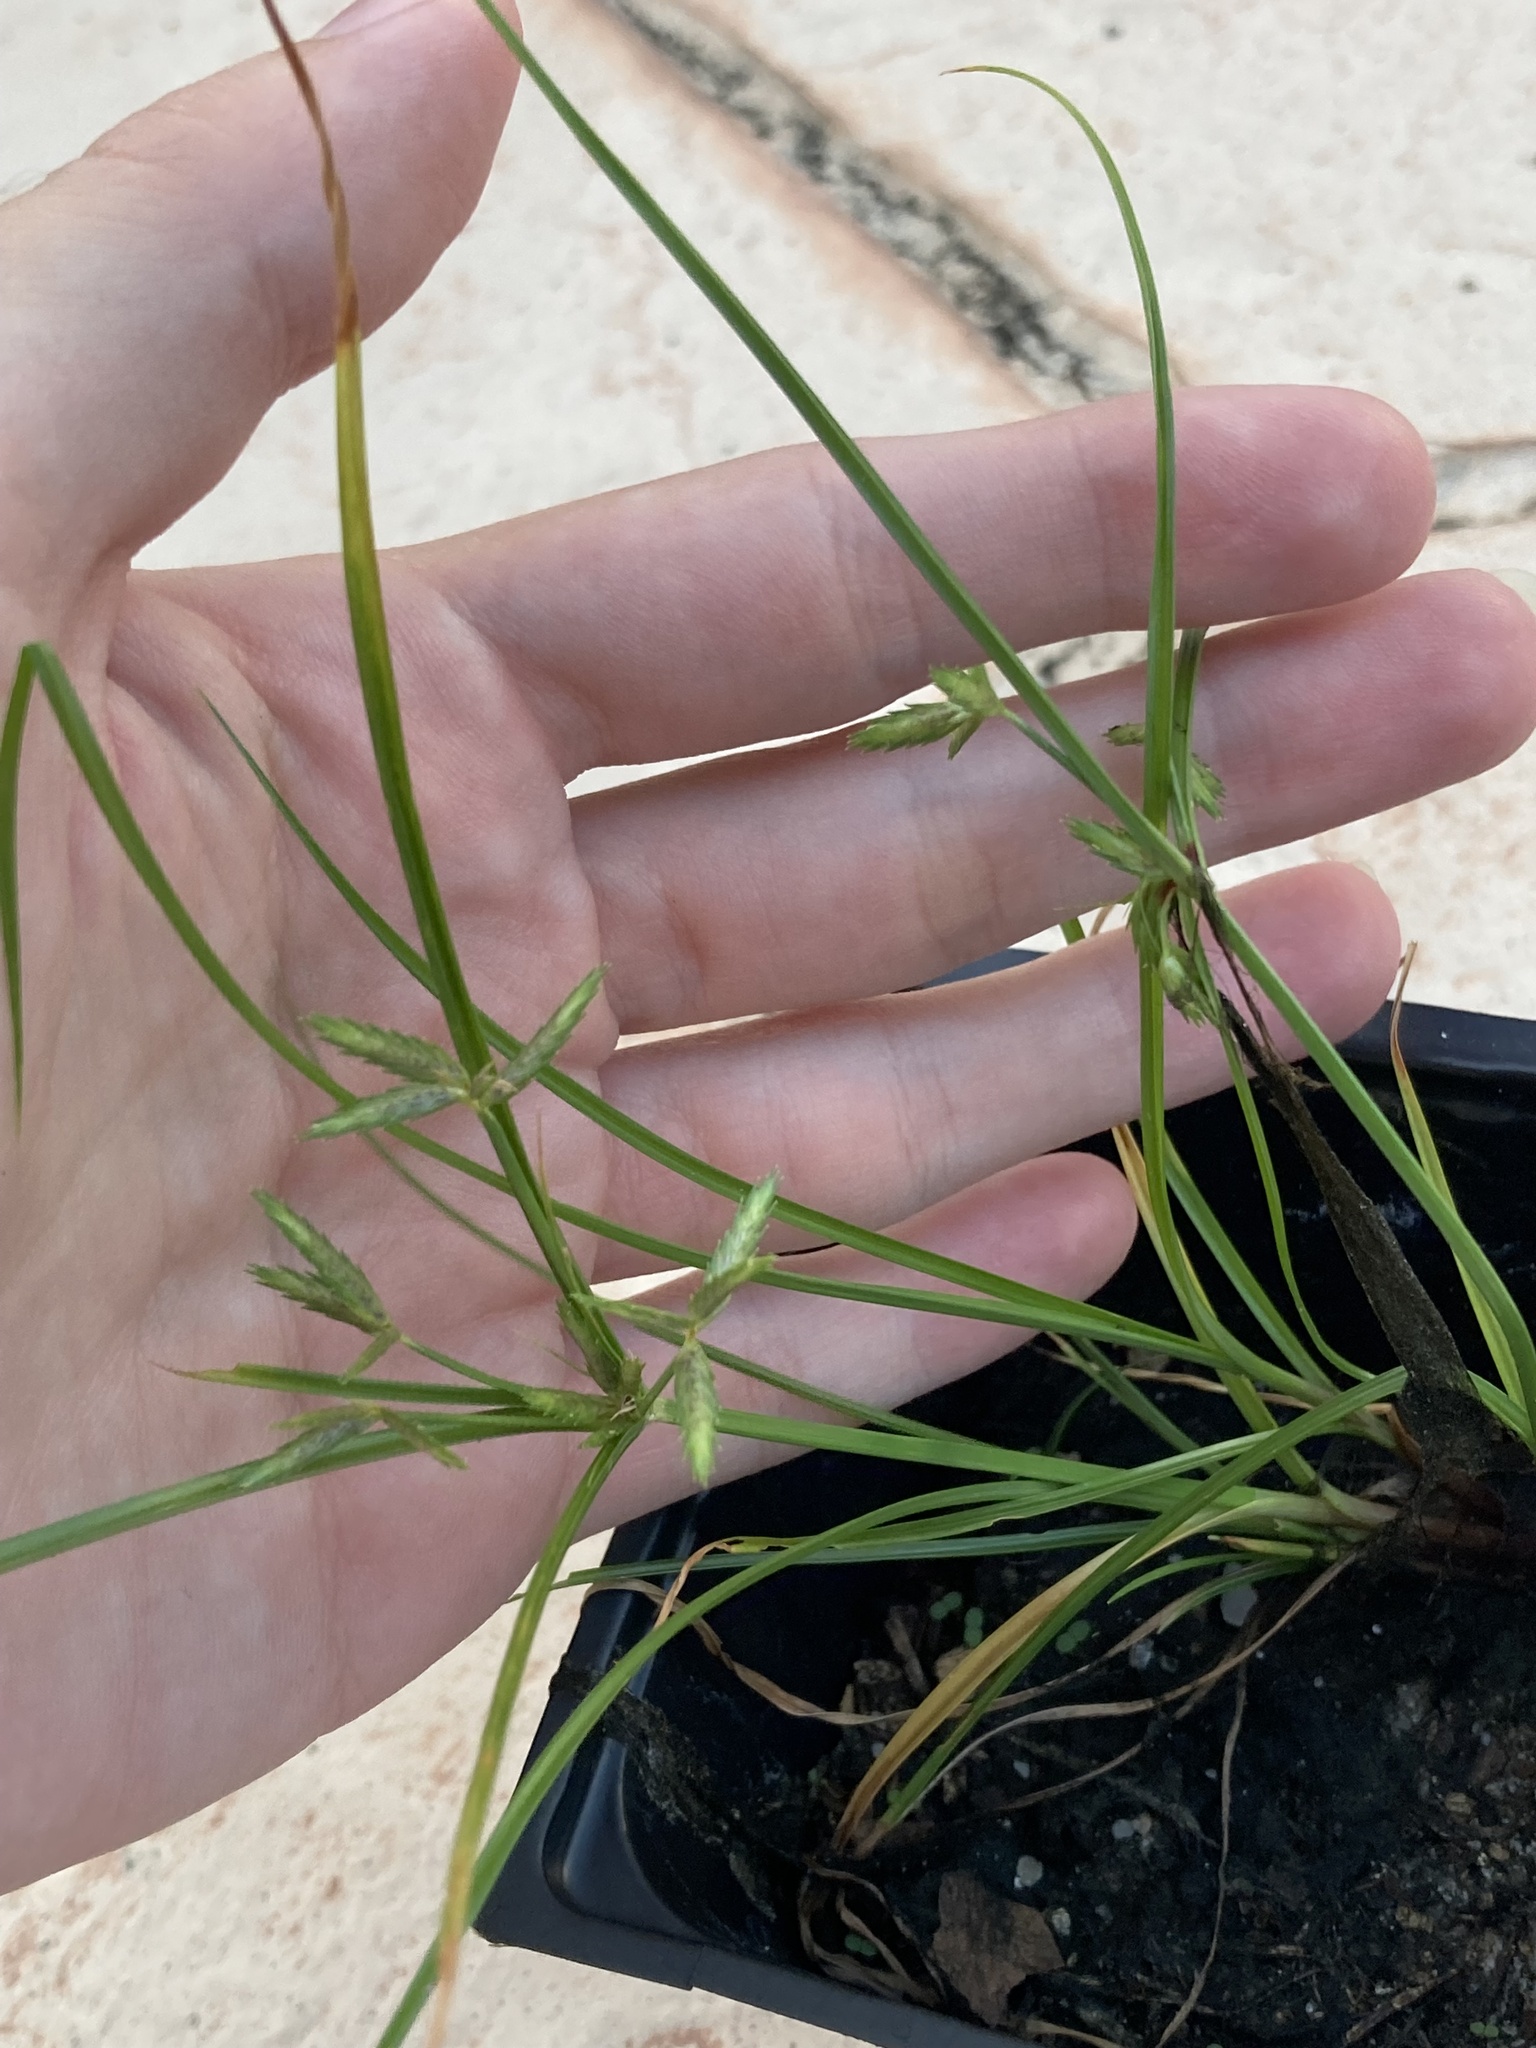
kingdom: Plantae
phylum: Tracheophyta
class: Liliopsida
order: Poales
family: Cyperaceae
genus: Cyperus
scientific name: Cyperus compressus
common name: Poorland flatsedge
